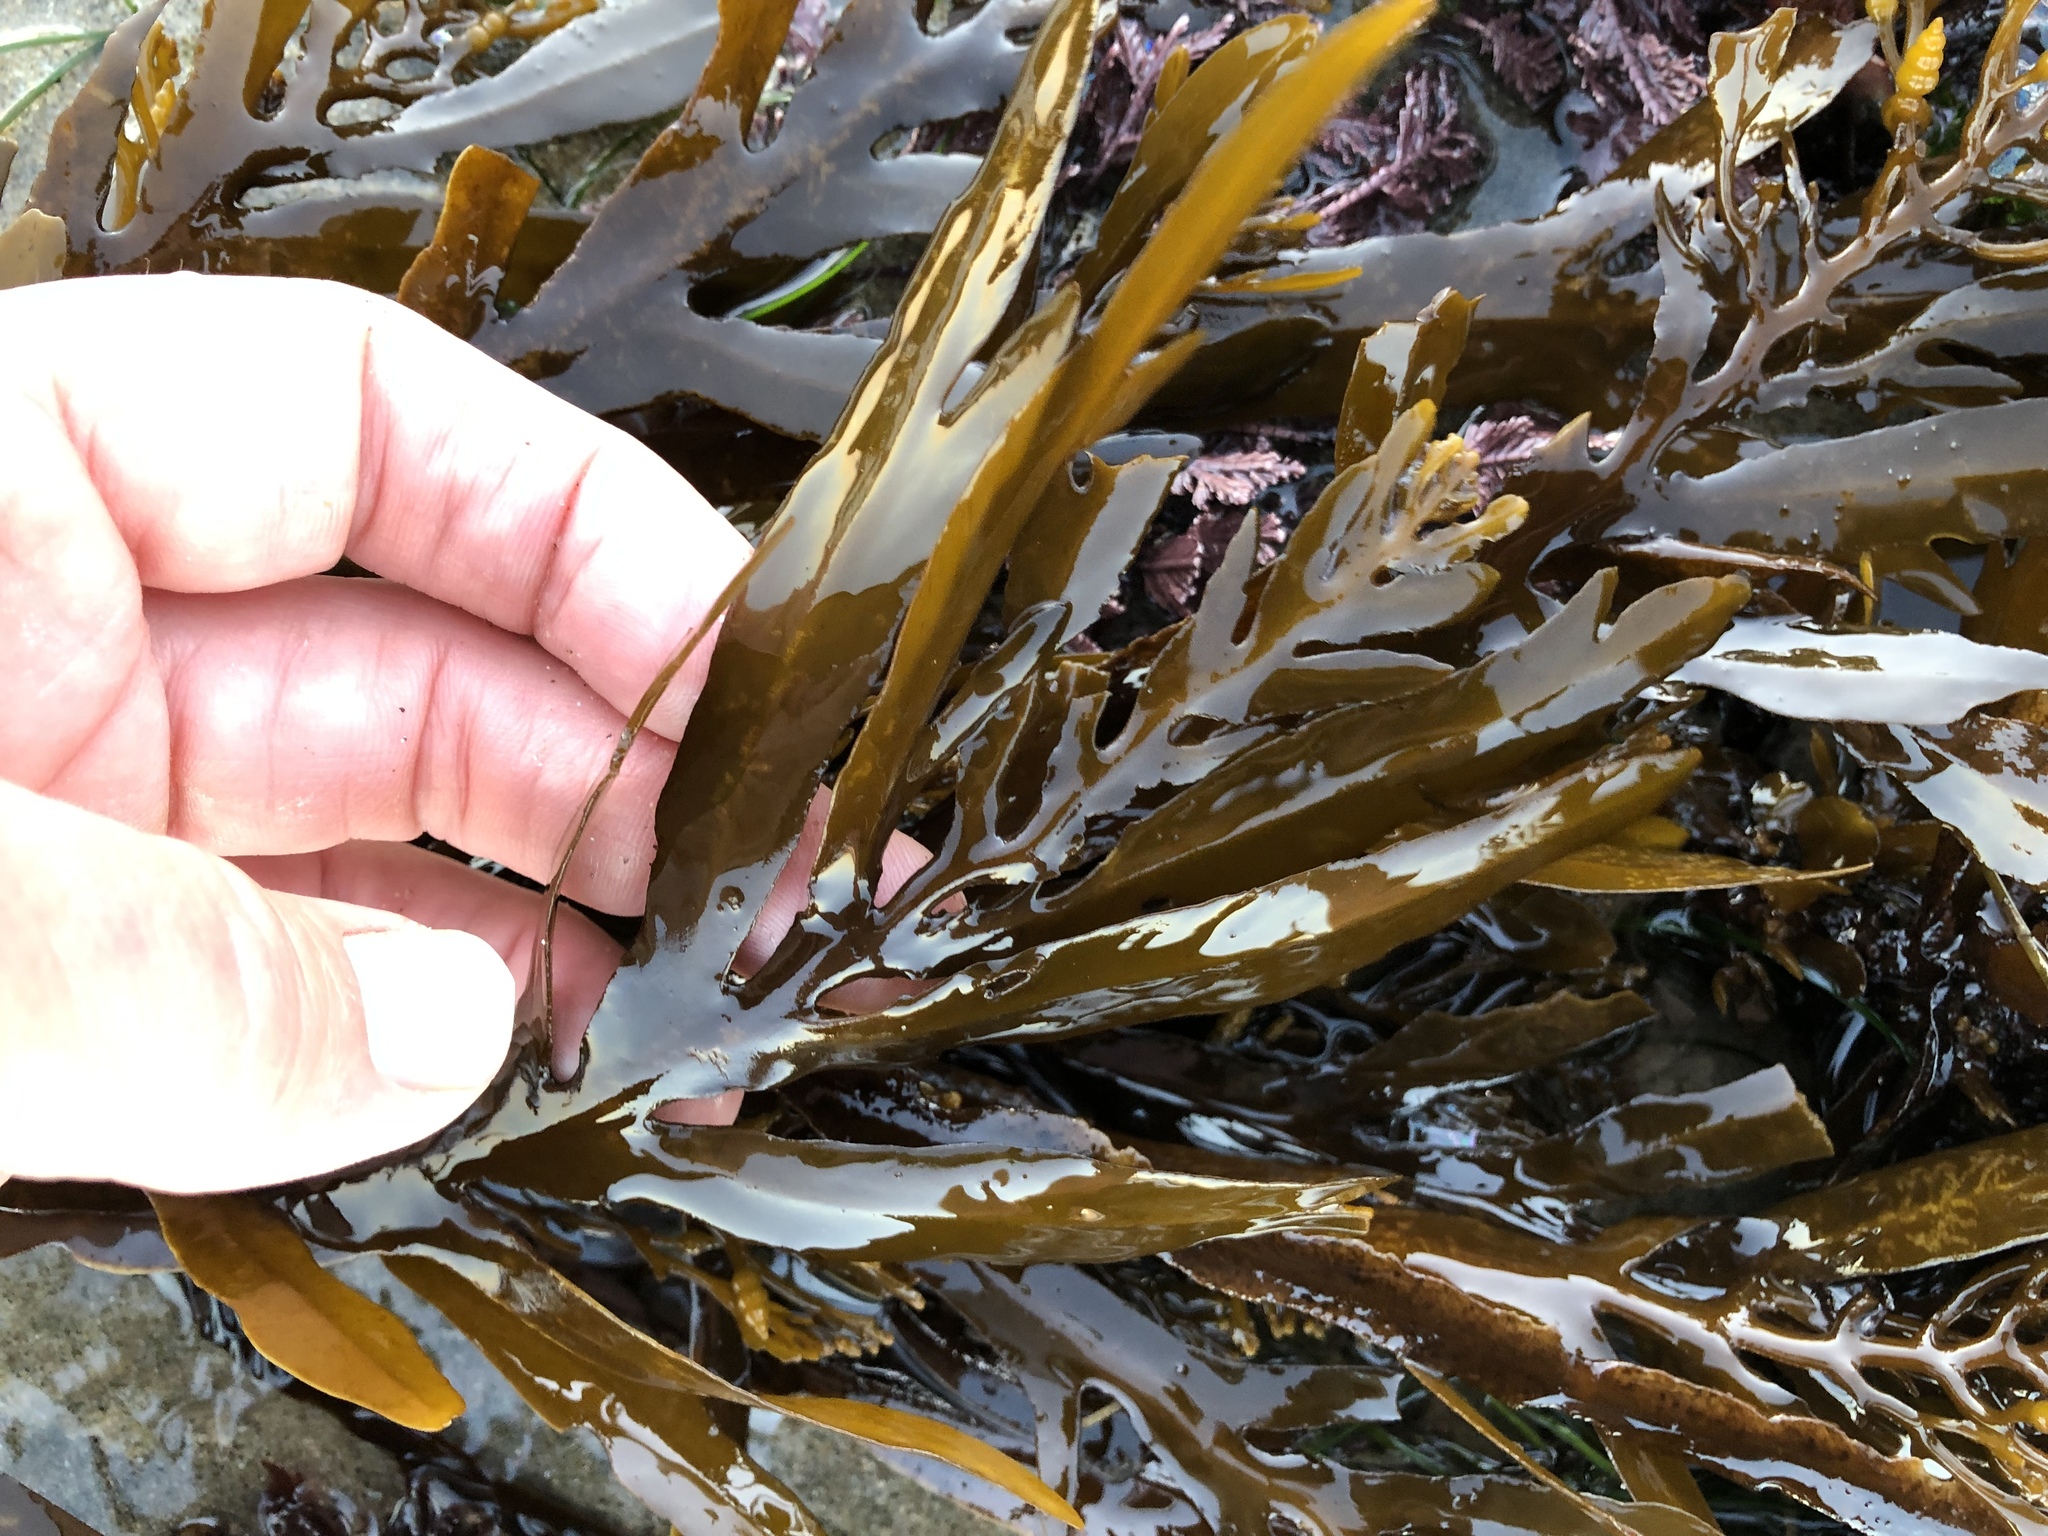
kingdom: Chromista
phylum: Ochrophyta
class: Phaeophyceae
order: Fucales
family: Sargassaceae
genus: Stephanocystis
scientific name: Stephanocystis
